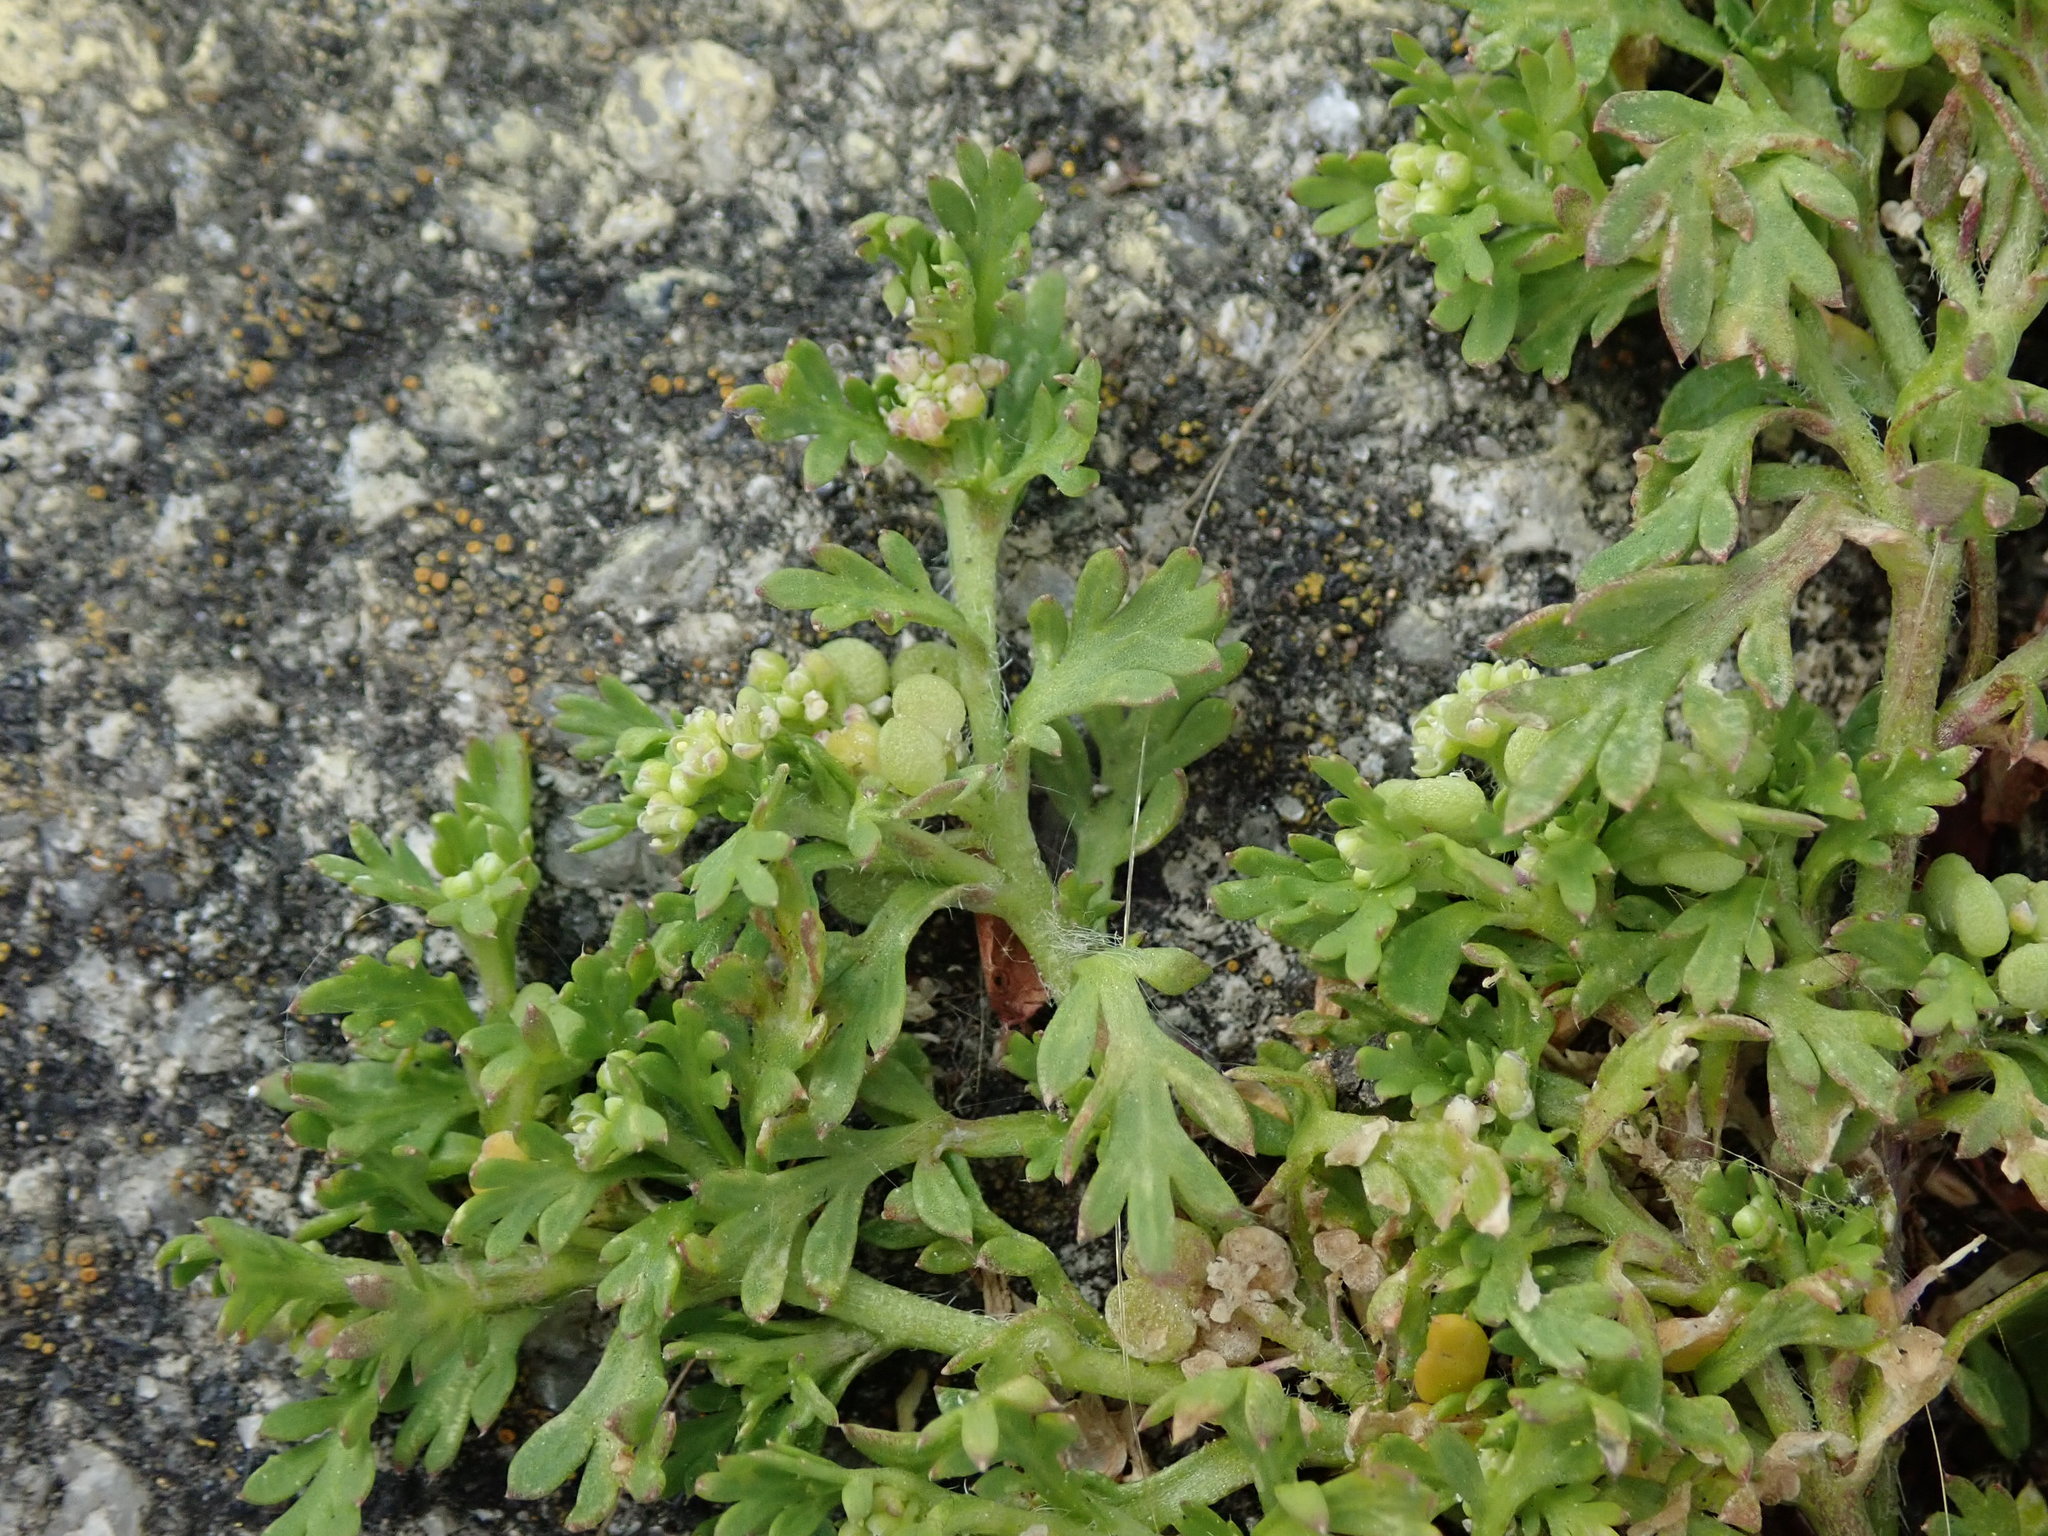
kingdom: Plantae
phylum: Tracheophyta
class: Magnoliopsida
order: Brassicales
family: Brassicaceae
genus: Lepidium
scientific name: Lepidium didymum
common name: Lesser swinecress
